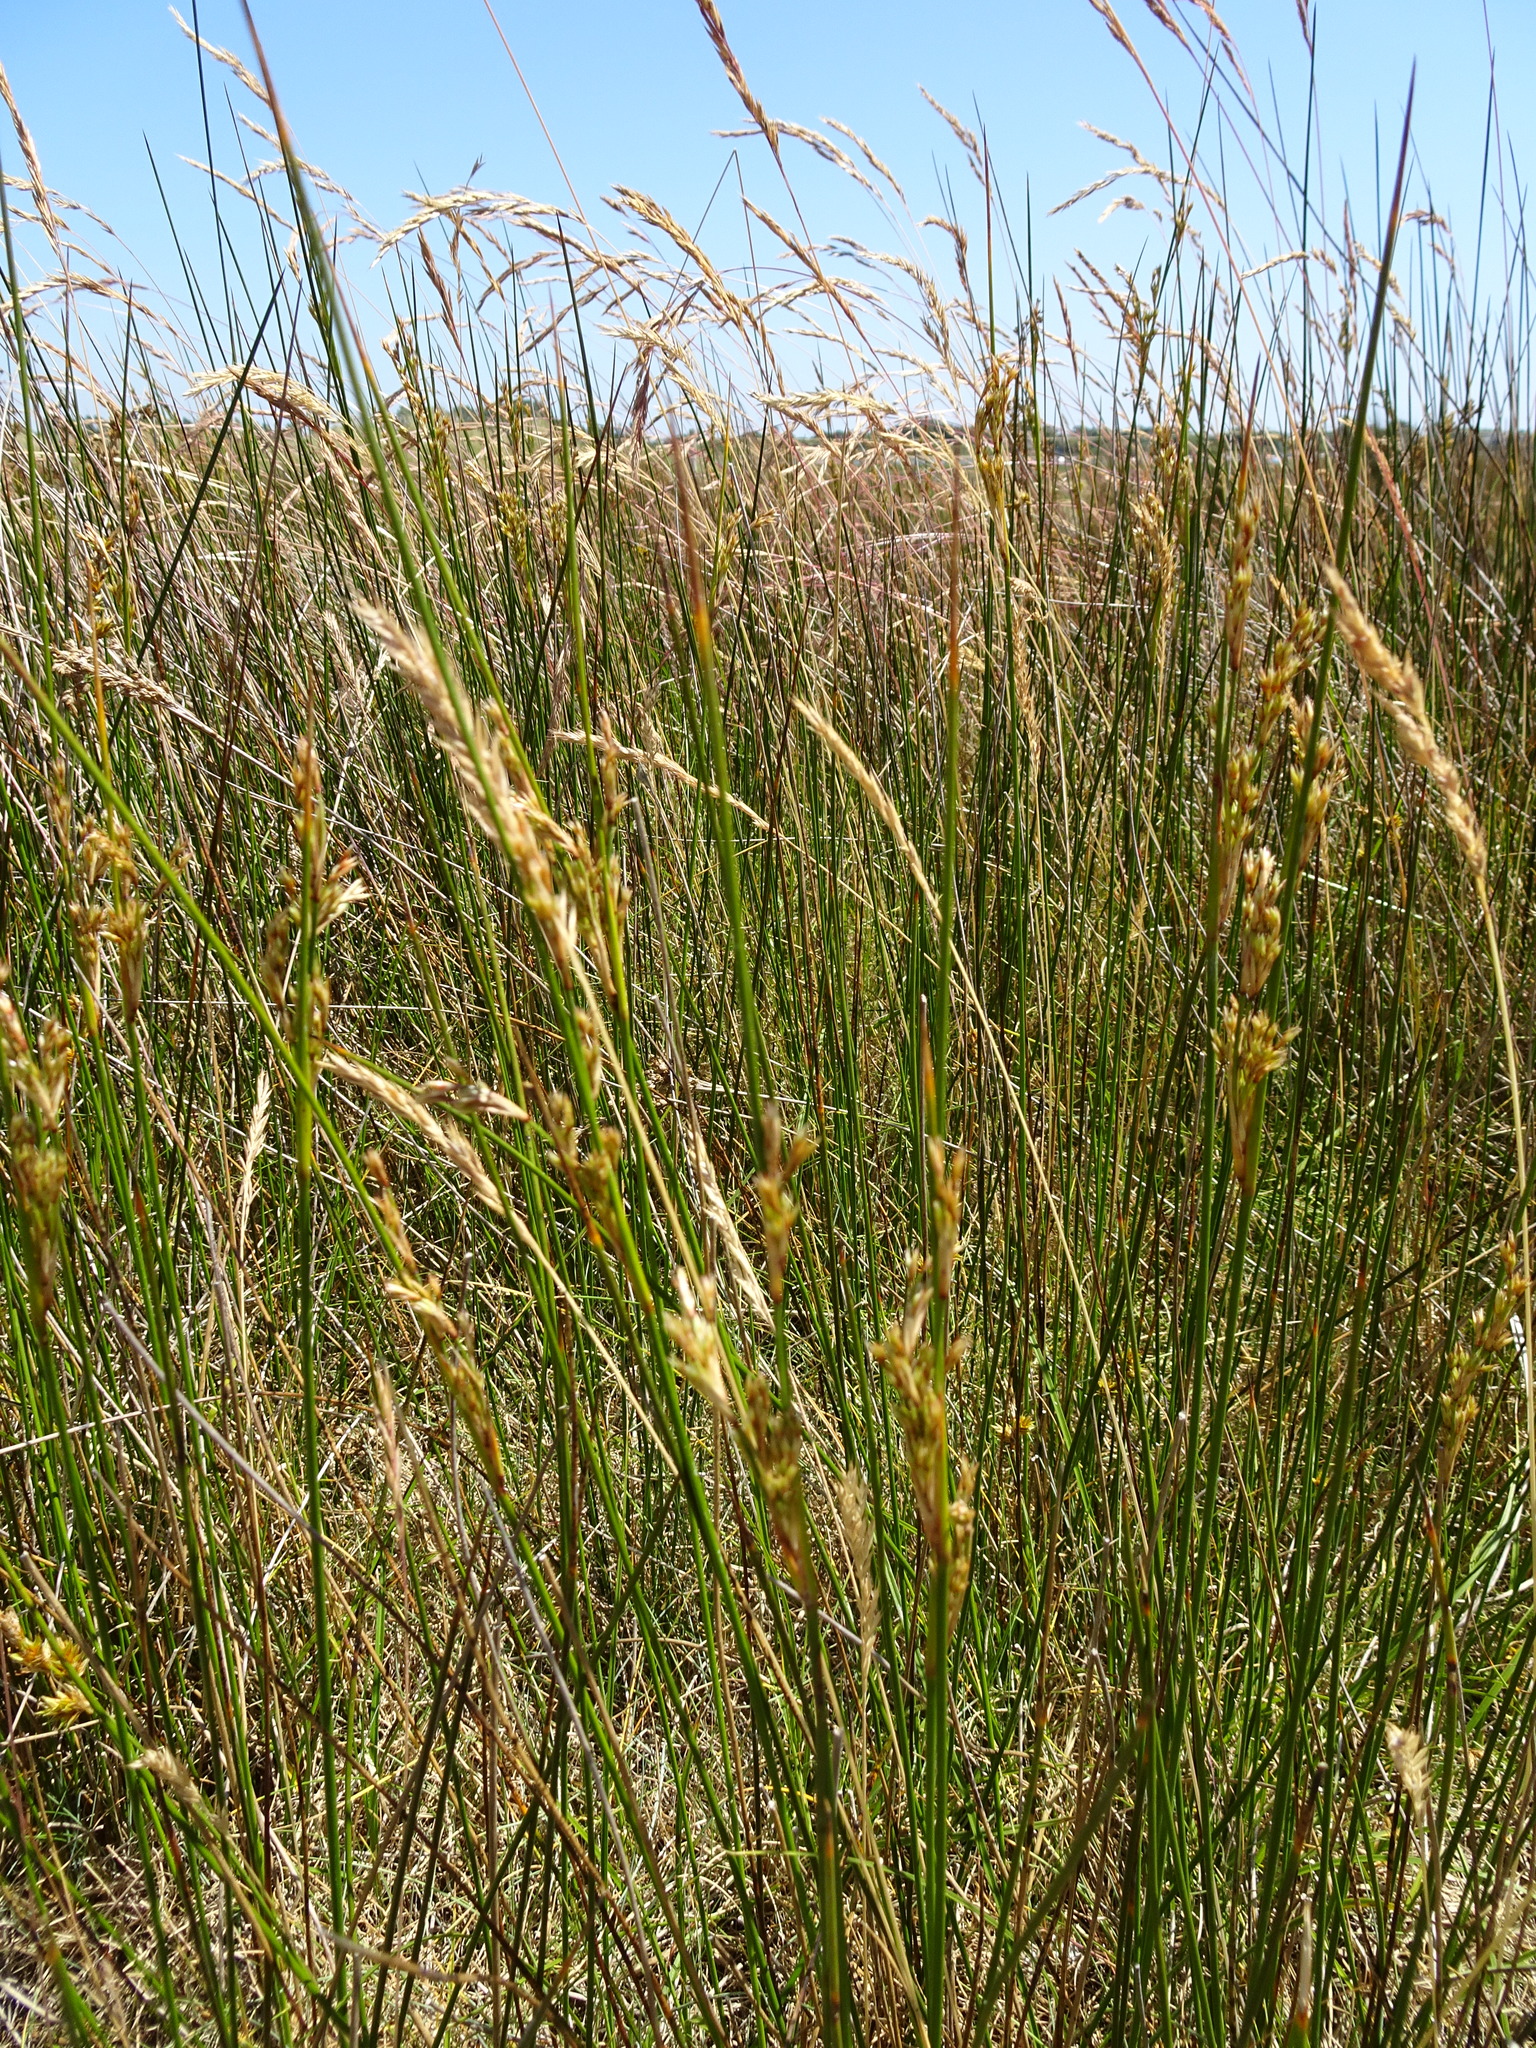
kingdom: Plantae
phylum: Tracheophyta
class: Liliopsida
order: Poales
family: Juncaceae
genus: Juncus
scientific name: Juncus maritimus
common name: Sea rush
